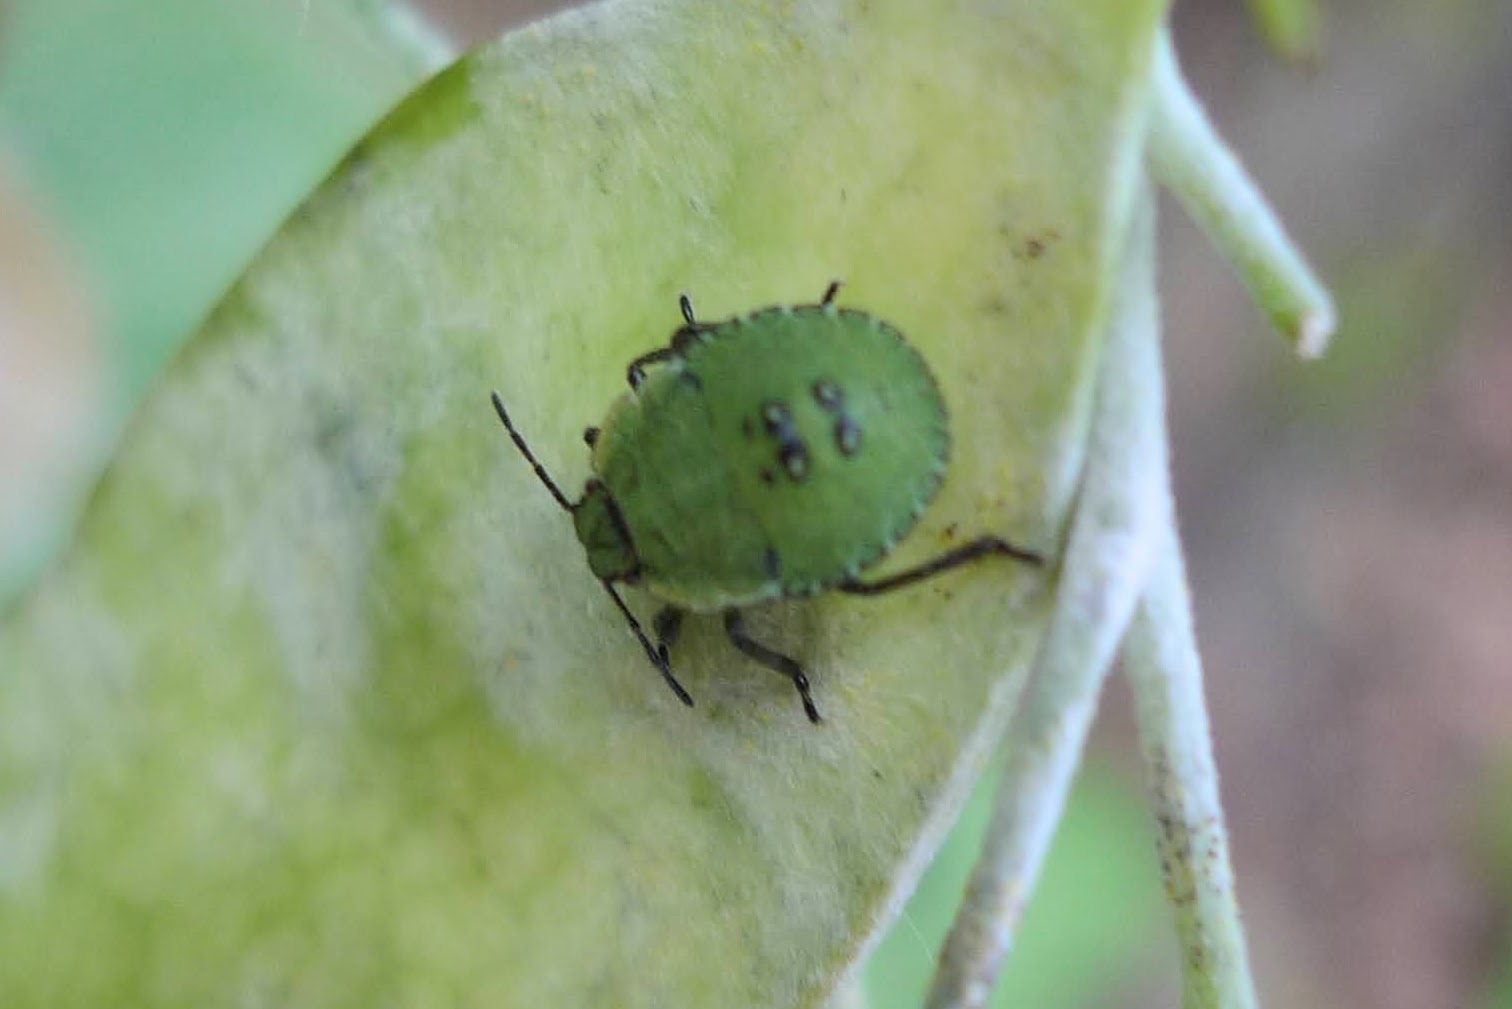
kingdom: Animalia
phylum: Arthropoda
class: Insecta
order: Hemiptera
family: Pentatomidae
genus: Palomena
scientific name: Palomena prasina
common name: Green shieldbug
